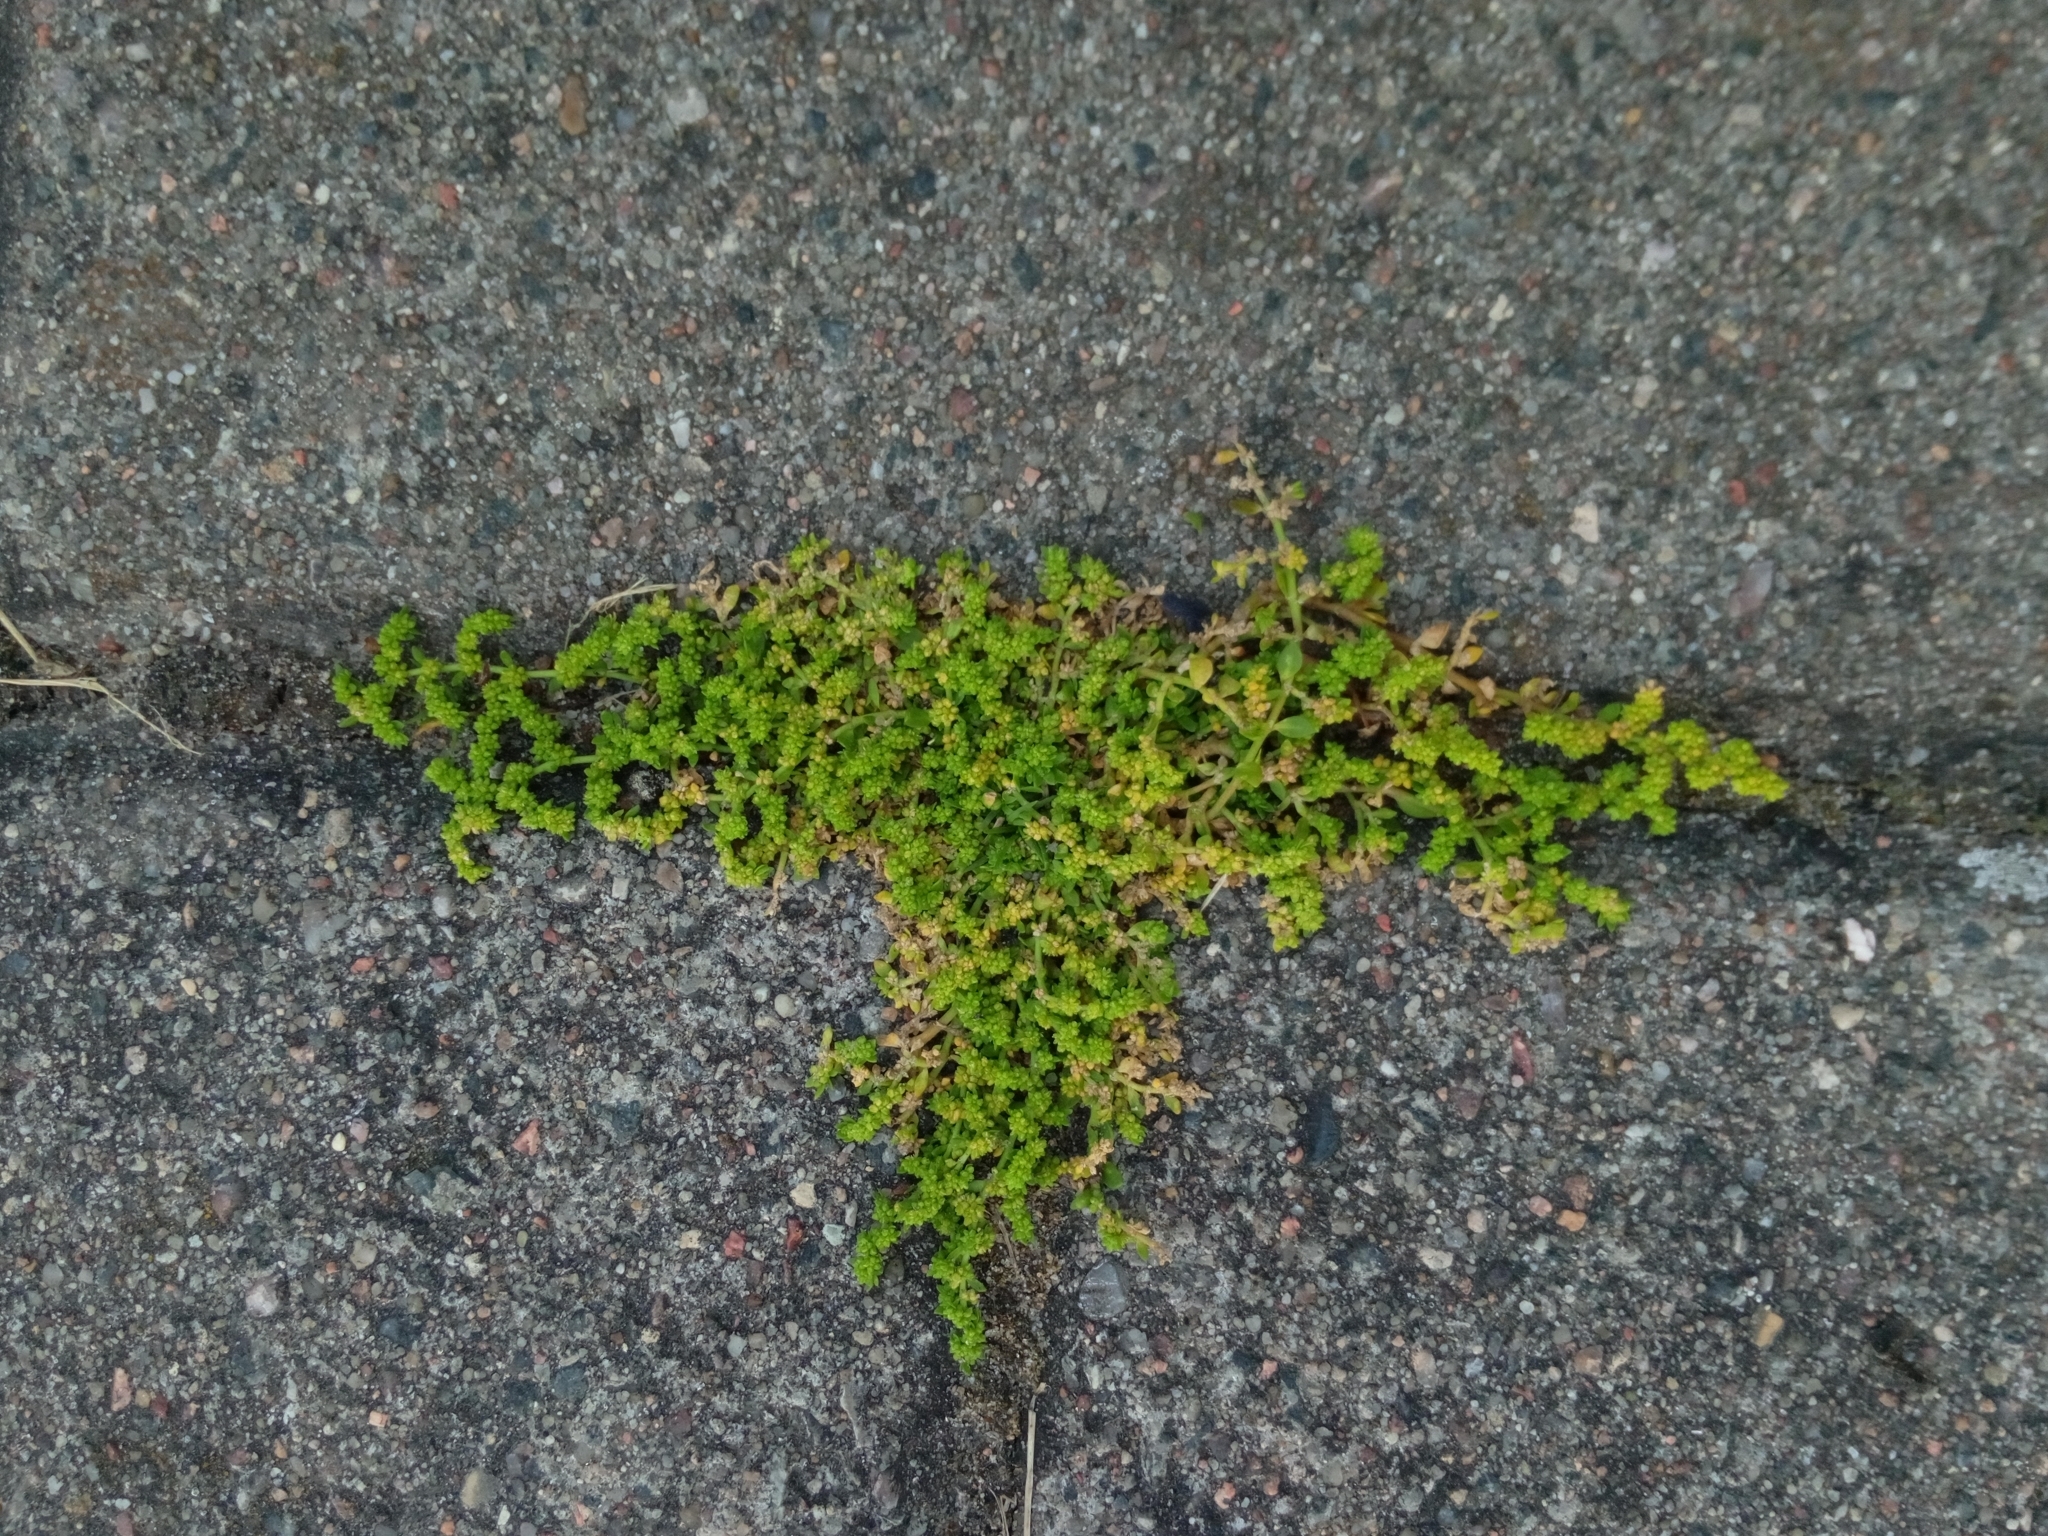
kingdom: Plantae
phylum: Tracheophyta
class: Magnoliopsida
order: Caryophyllales
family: Caryophyllaceae
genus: Herniaria
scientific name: Herniaria glabra
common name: Smooth rupturewort
